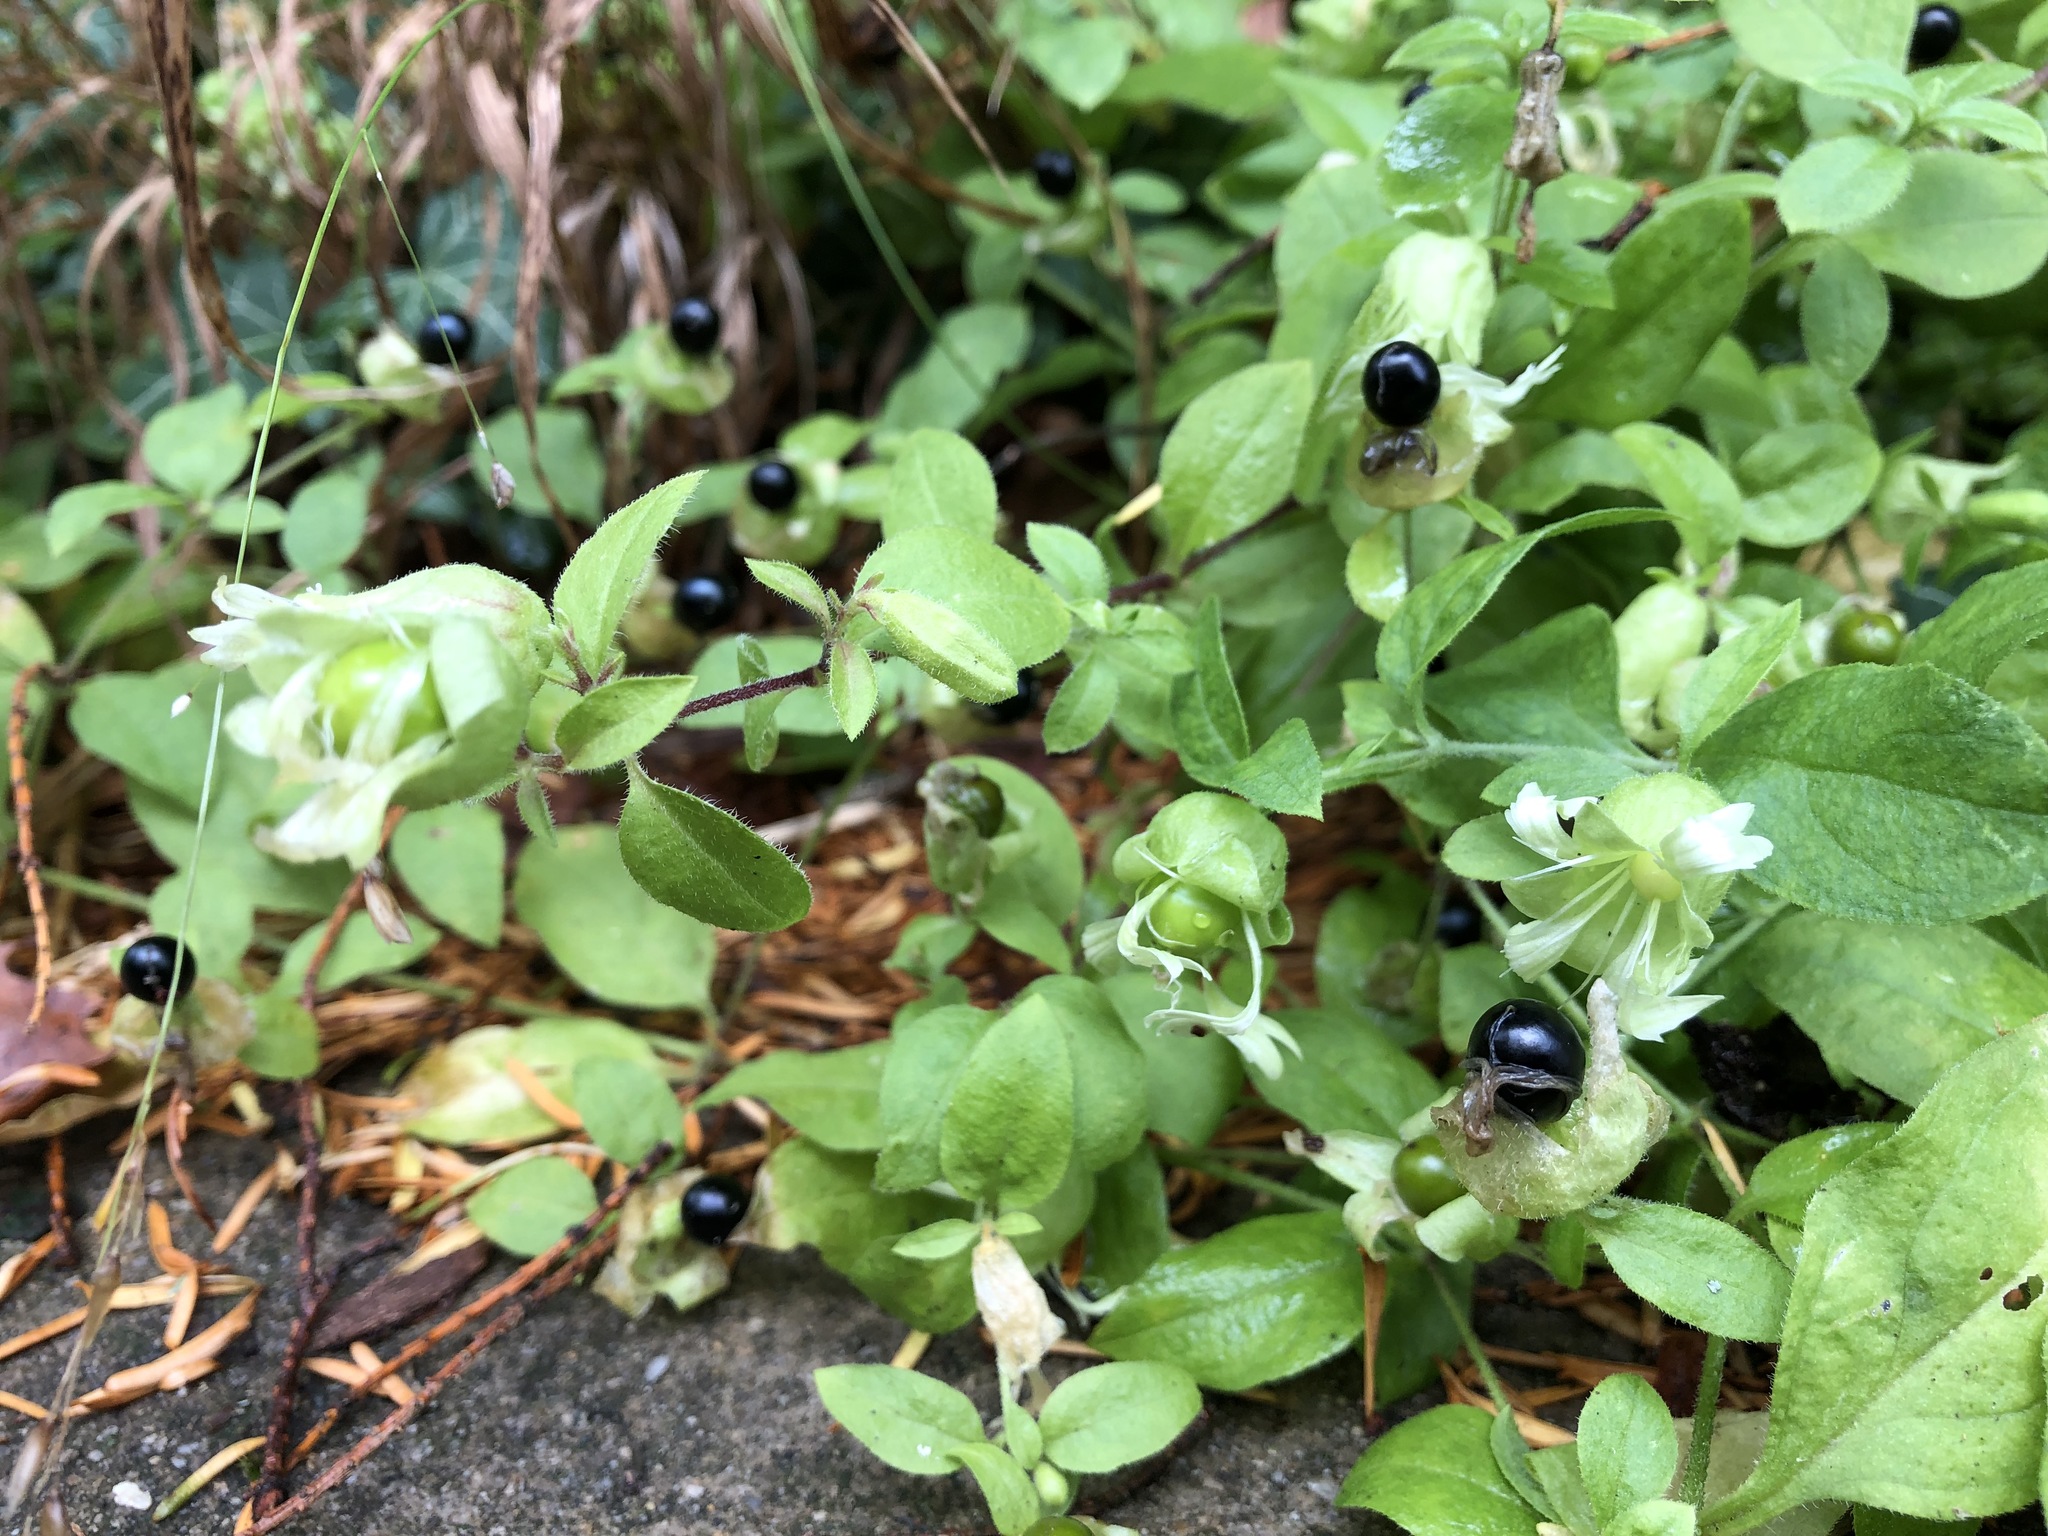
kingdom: Plantae
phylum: Tracheophyta
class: Magnoliopsida
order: Caryophyllales
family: Caryophyllaceae
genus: Silene
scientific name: Silene baccifera
